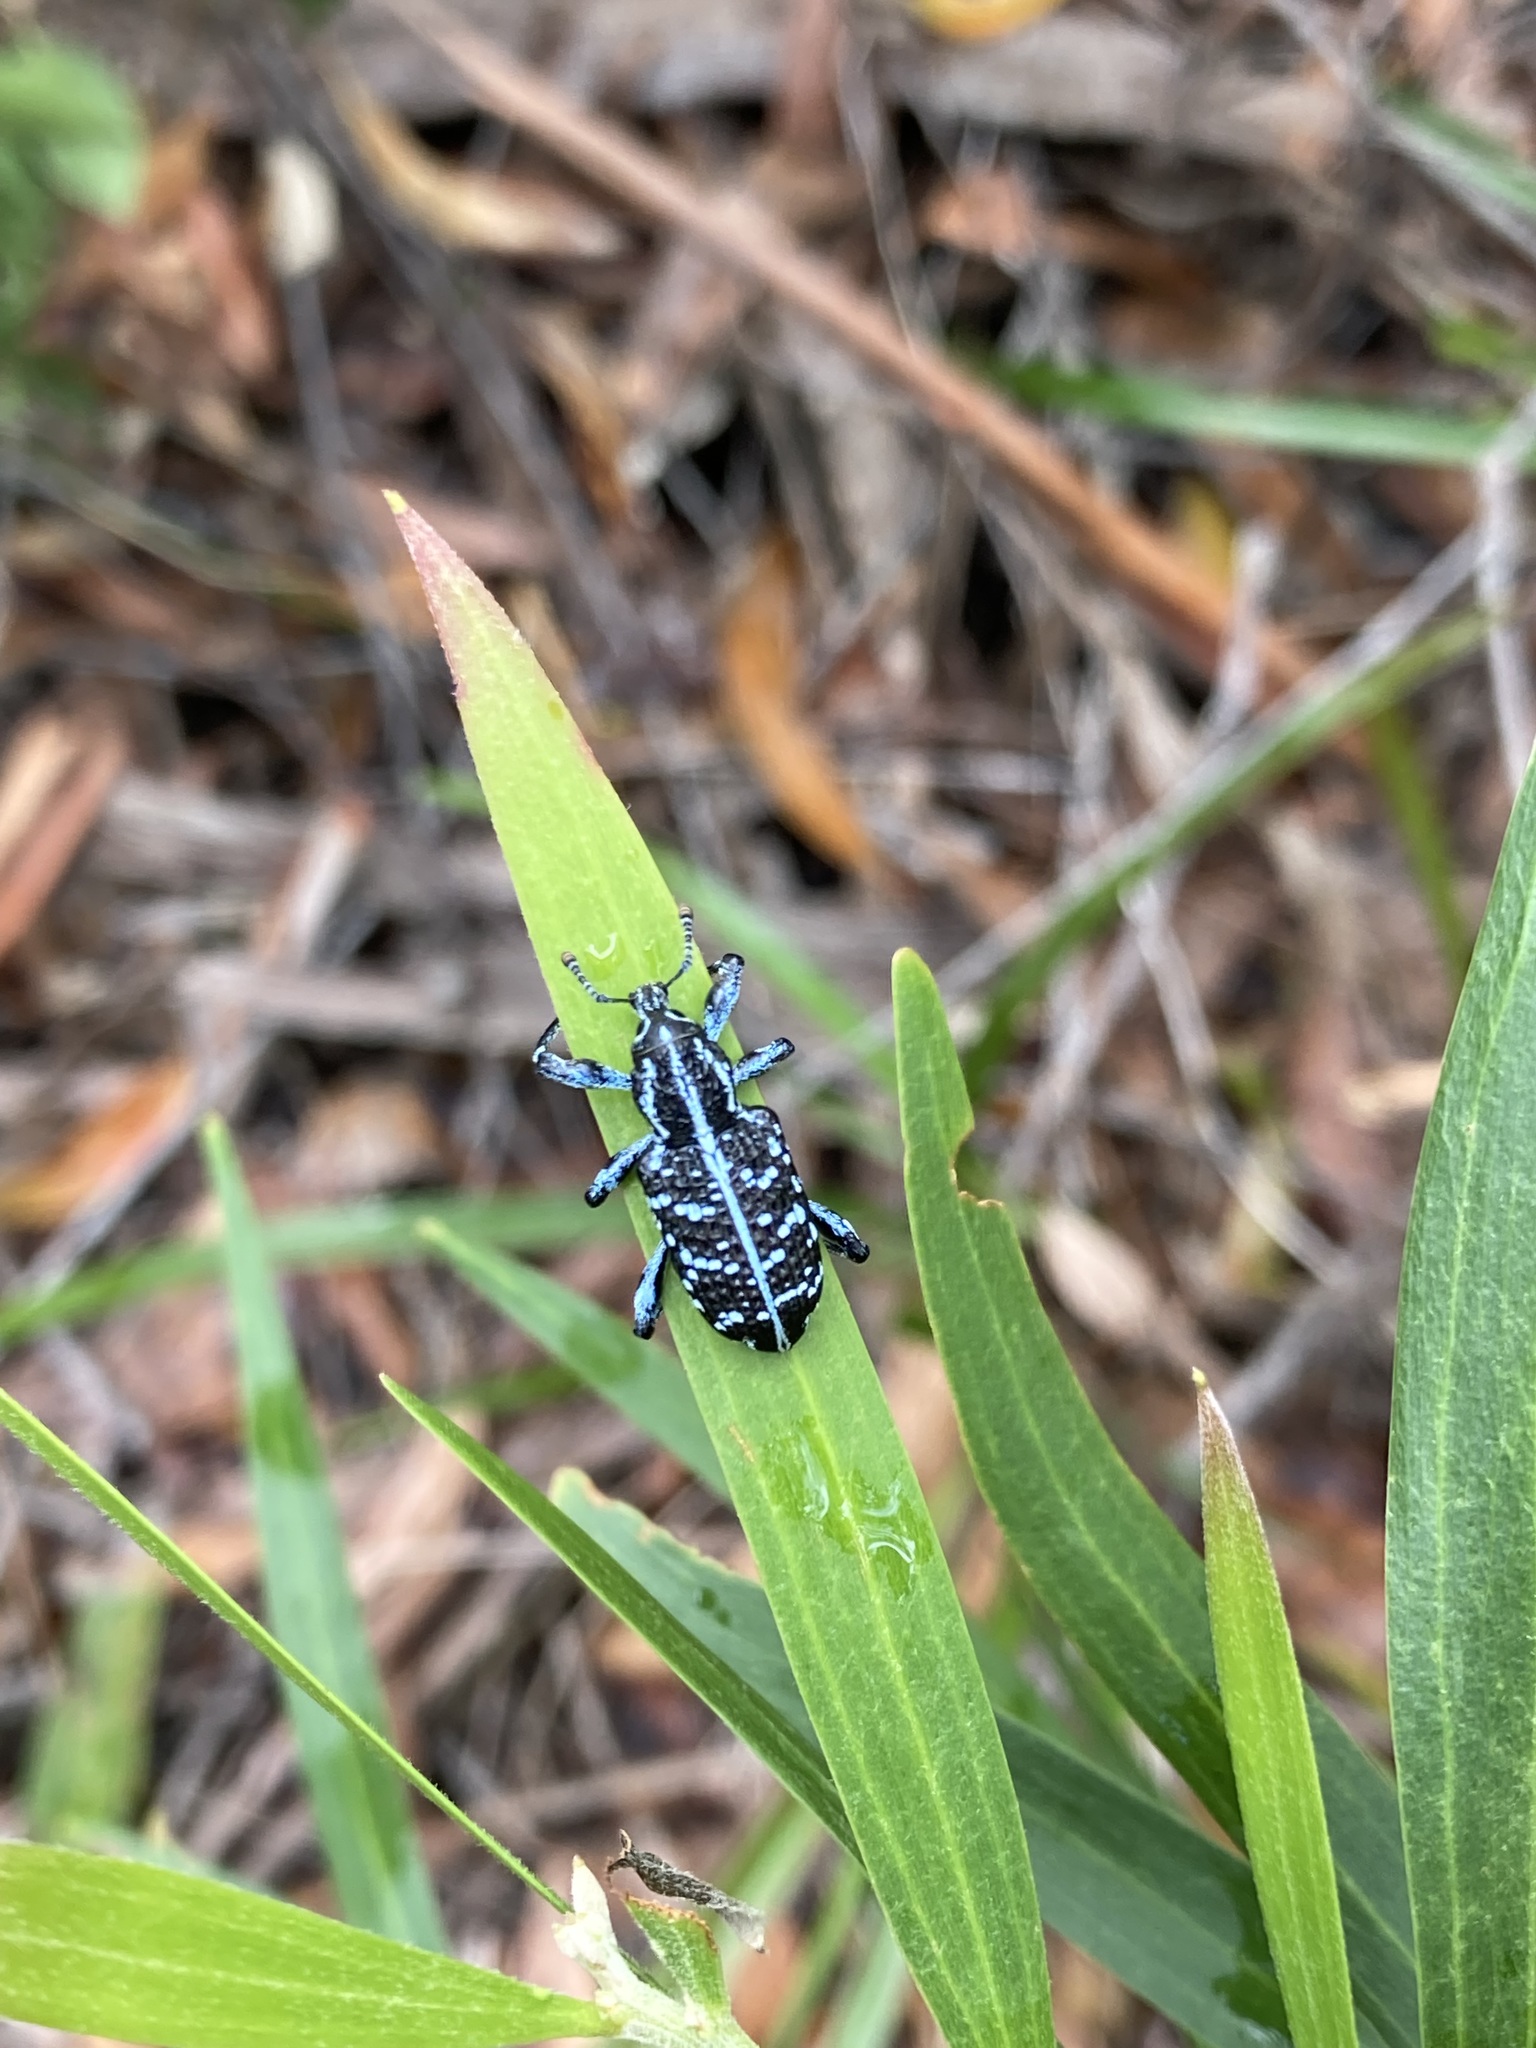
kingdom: Animalia
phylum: Arthropoda
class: Insecta
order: Coleoptera
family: Curculionidae
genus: Chrysolopus
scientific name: Chrysolopus spectabilis
